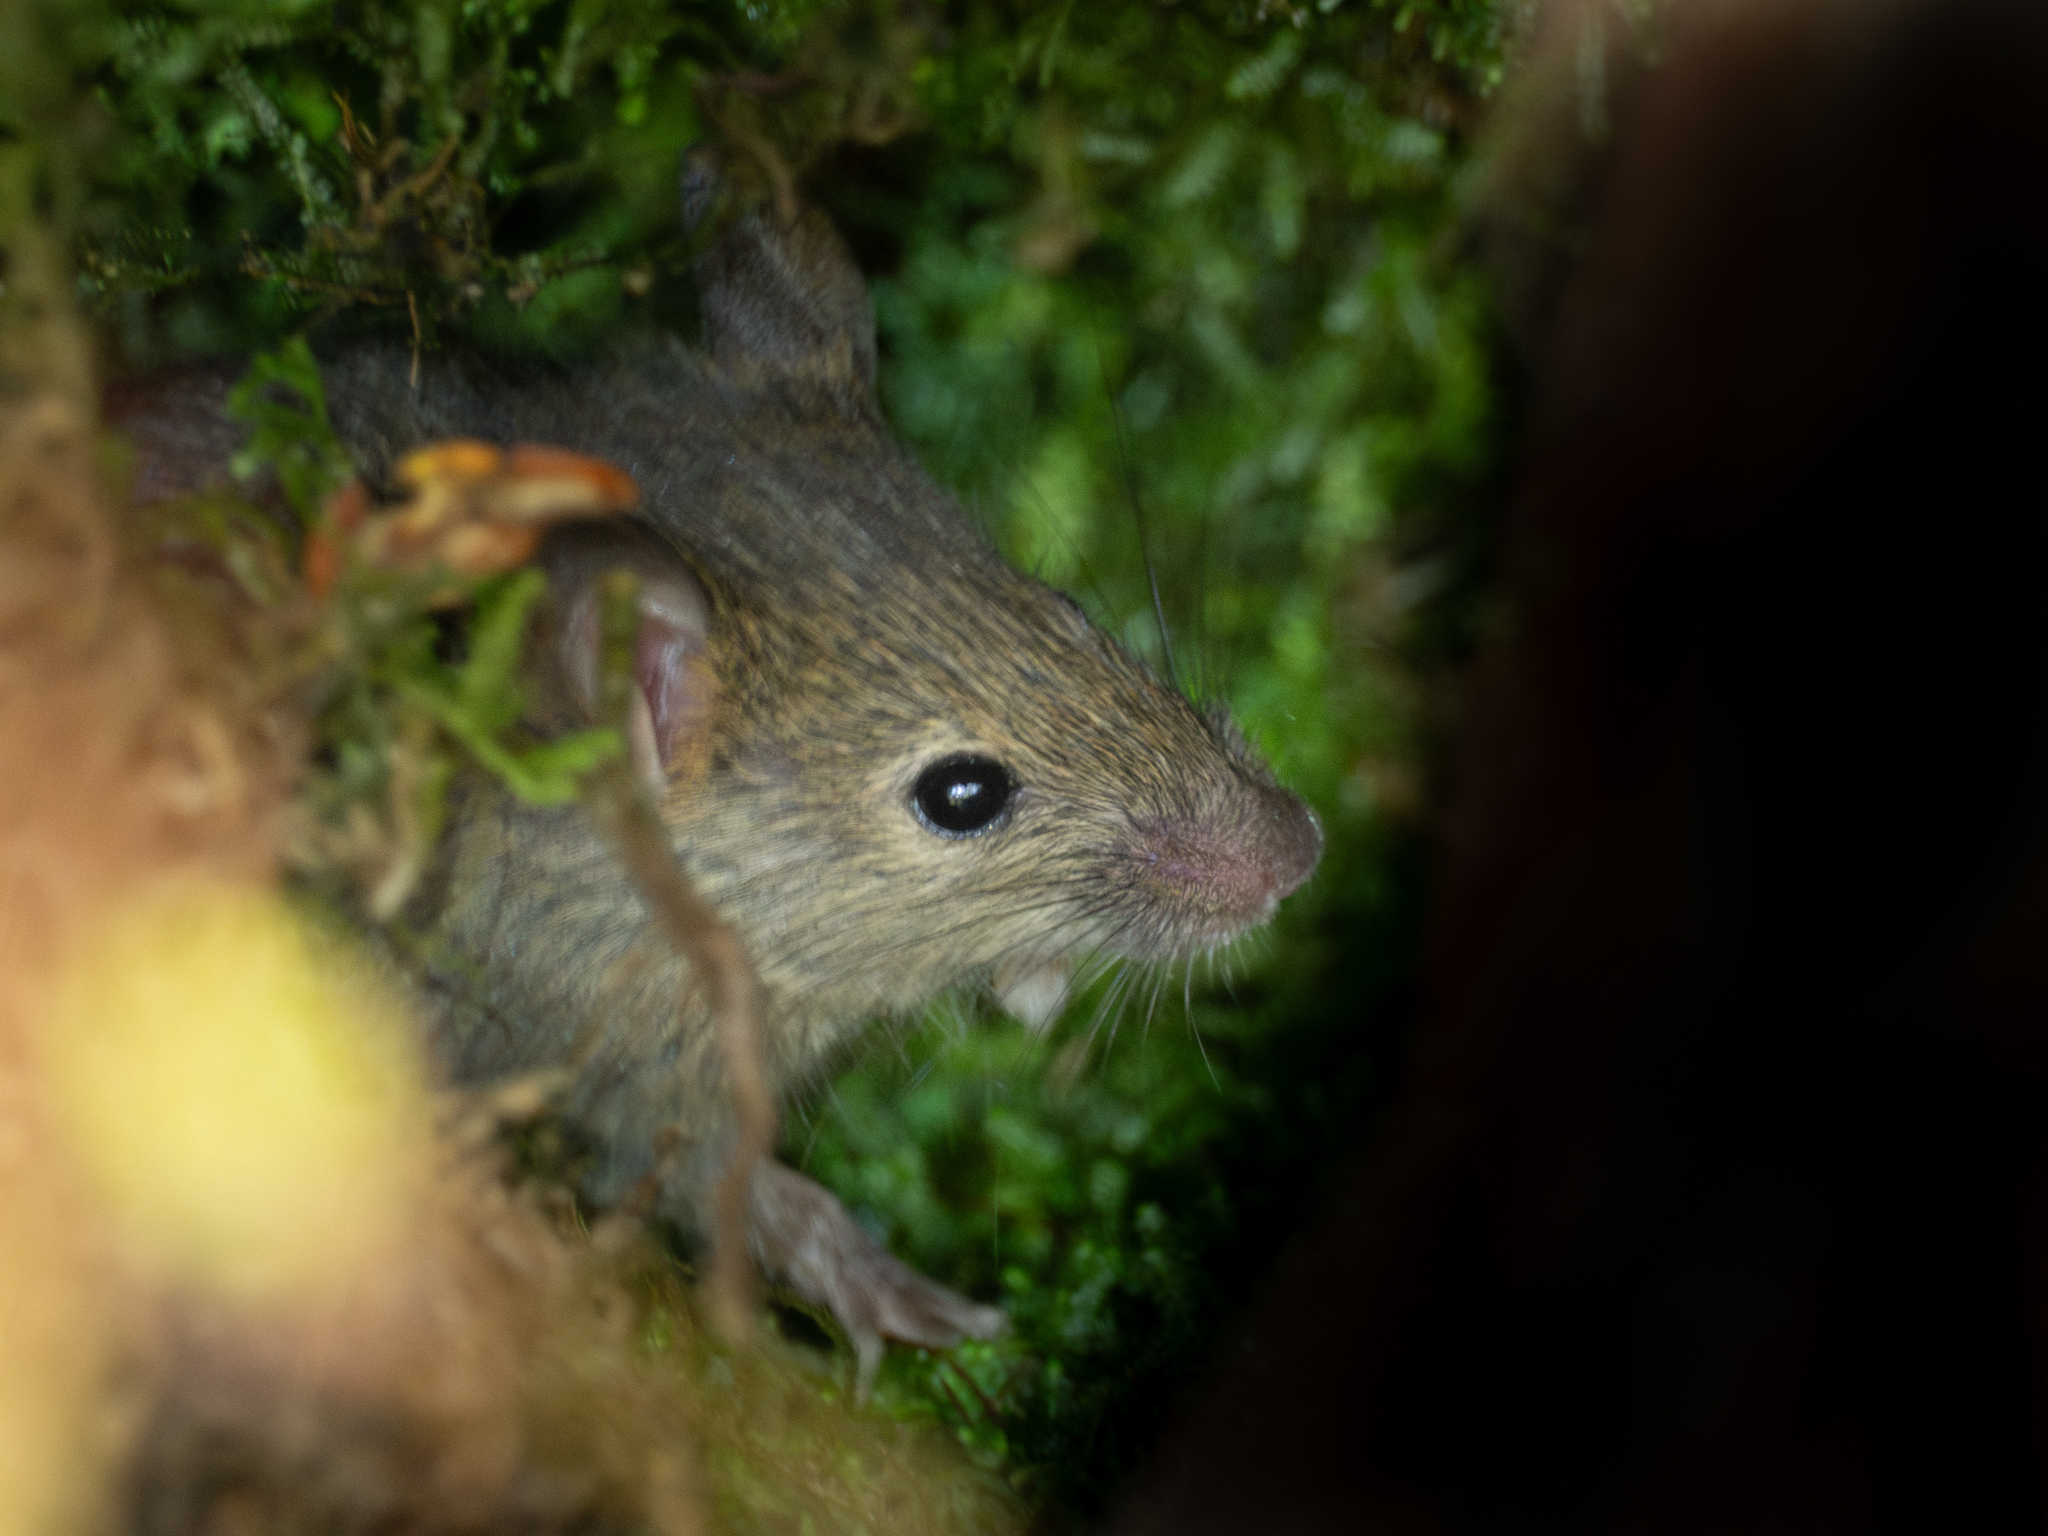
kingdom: Animalia
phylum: Chordata
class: Mammalia
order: Rodentia
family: Muridae
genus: Mus
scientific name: Mus musculus
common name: House mouse
